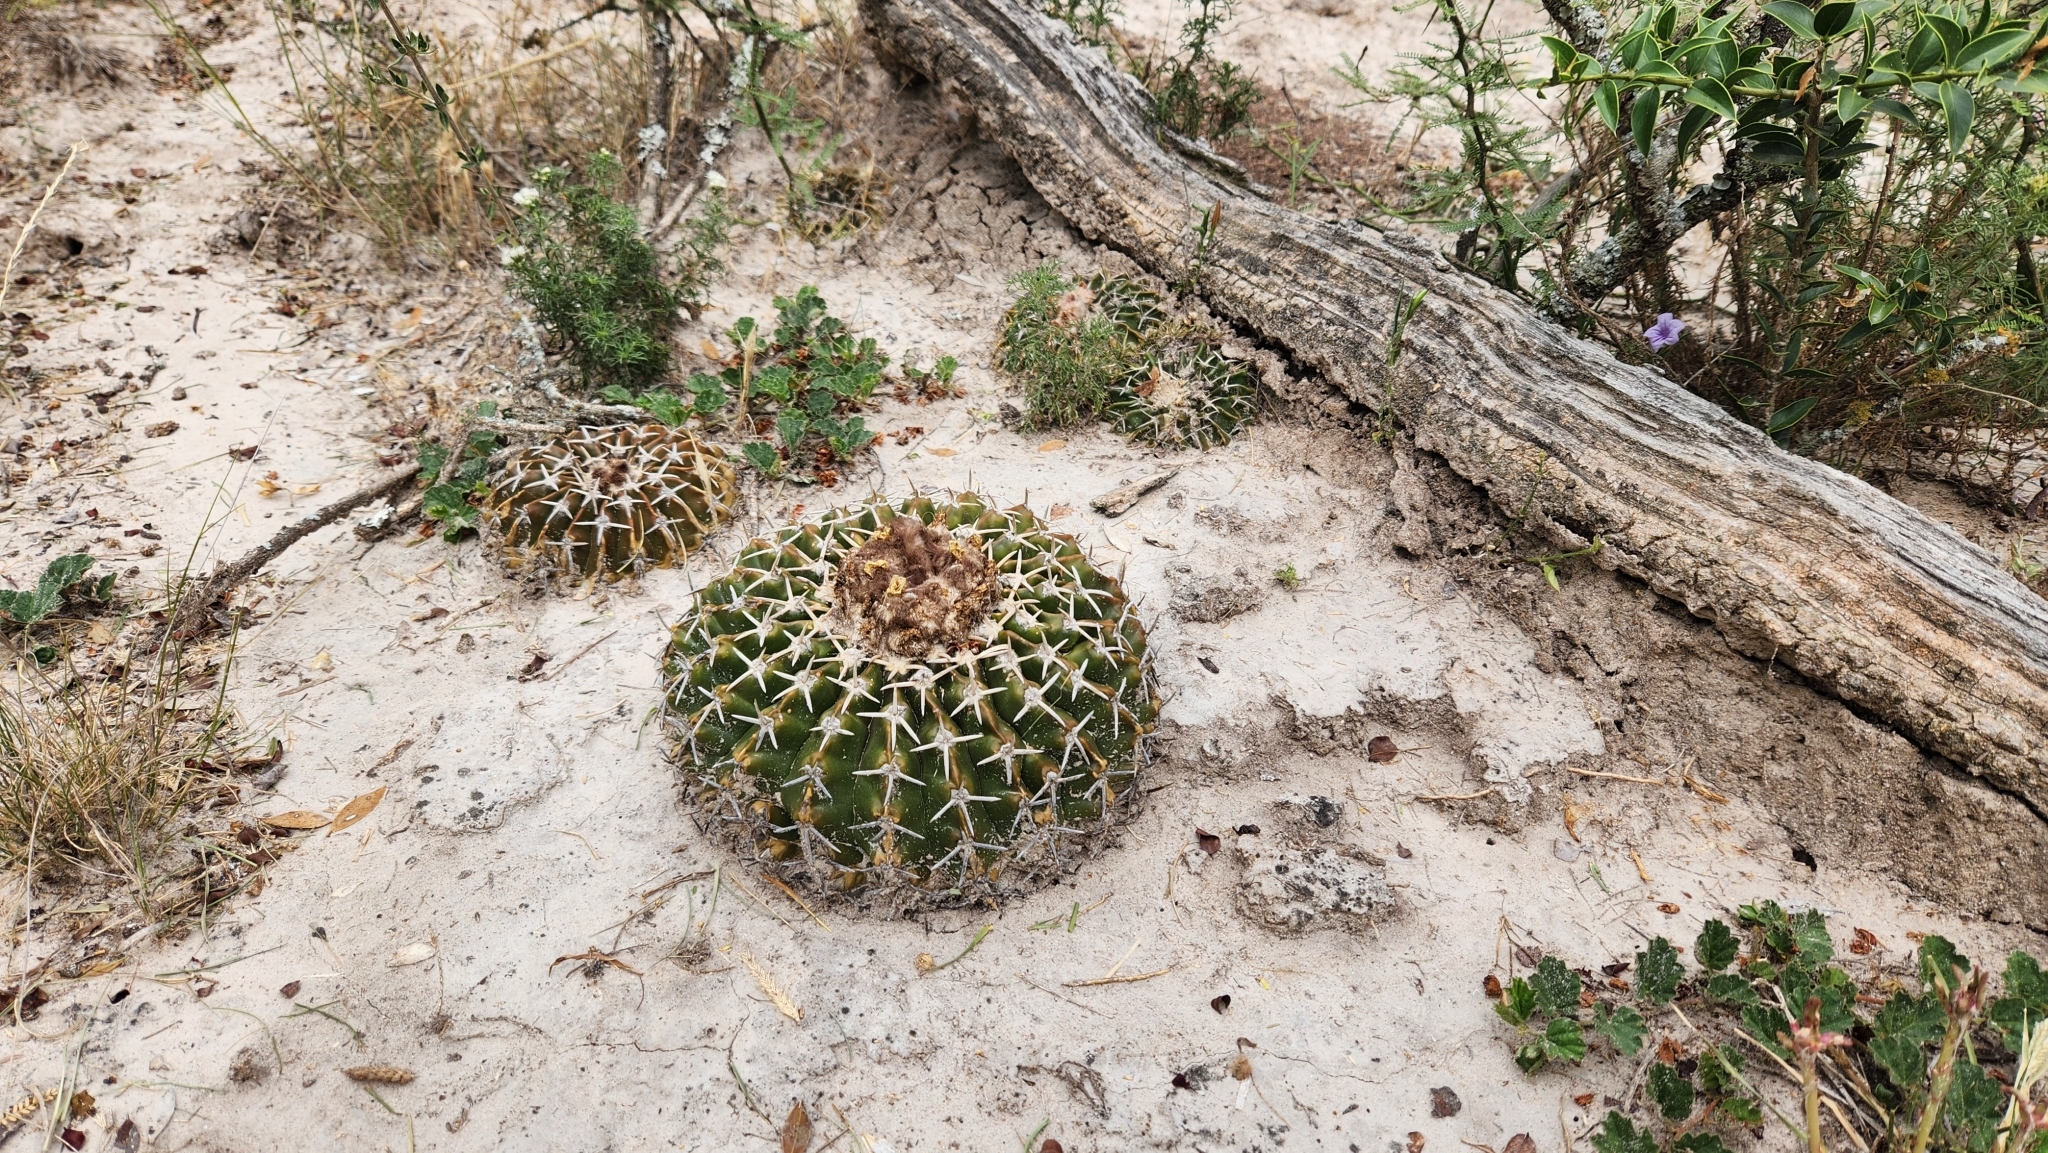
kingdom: Plantae
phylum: Tracheophyta
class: Magnoliopsida
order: Caryophyllales
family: Cactaceae
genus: Parodia
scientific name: Parodia erinacea
